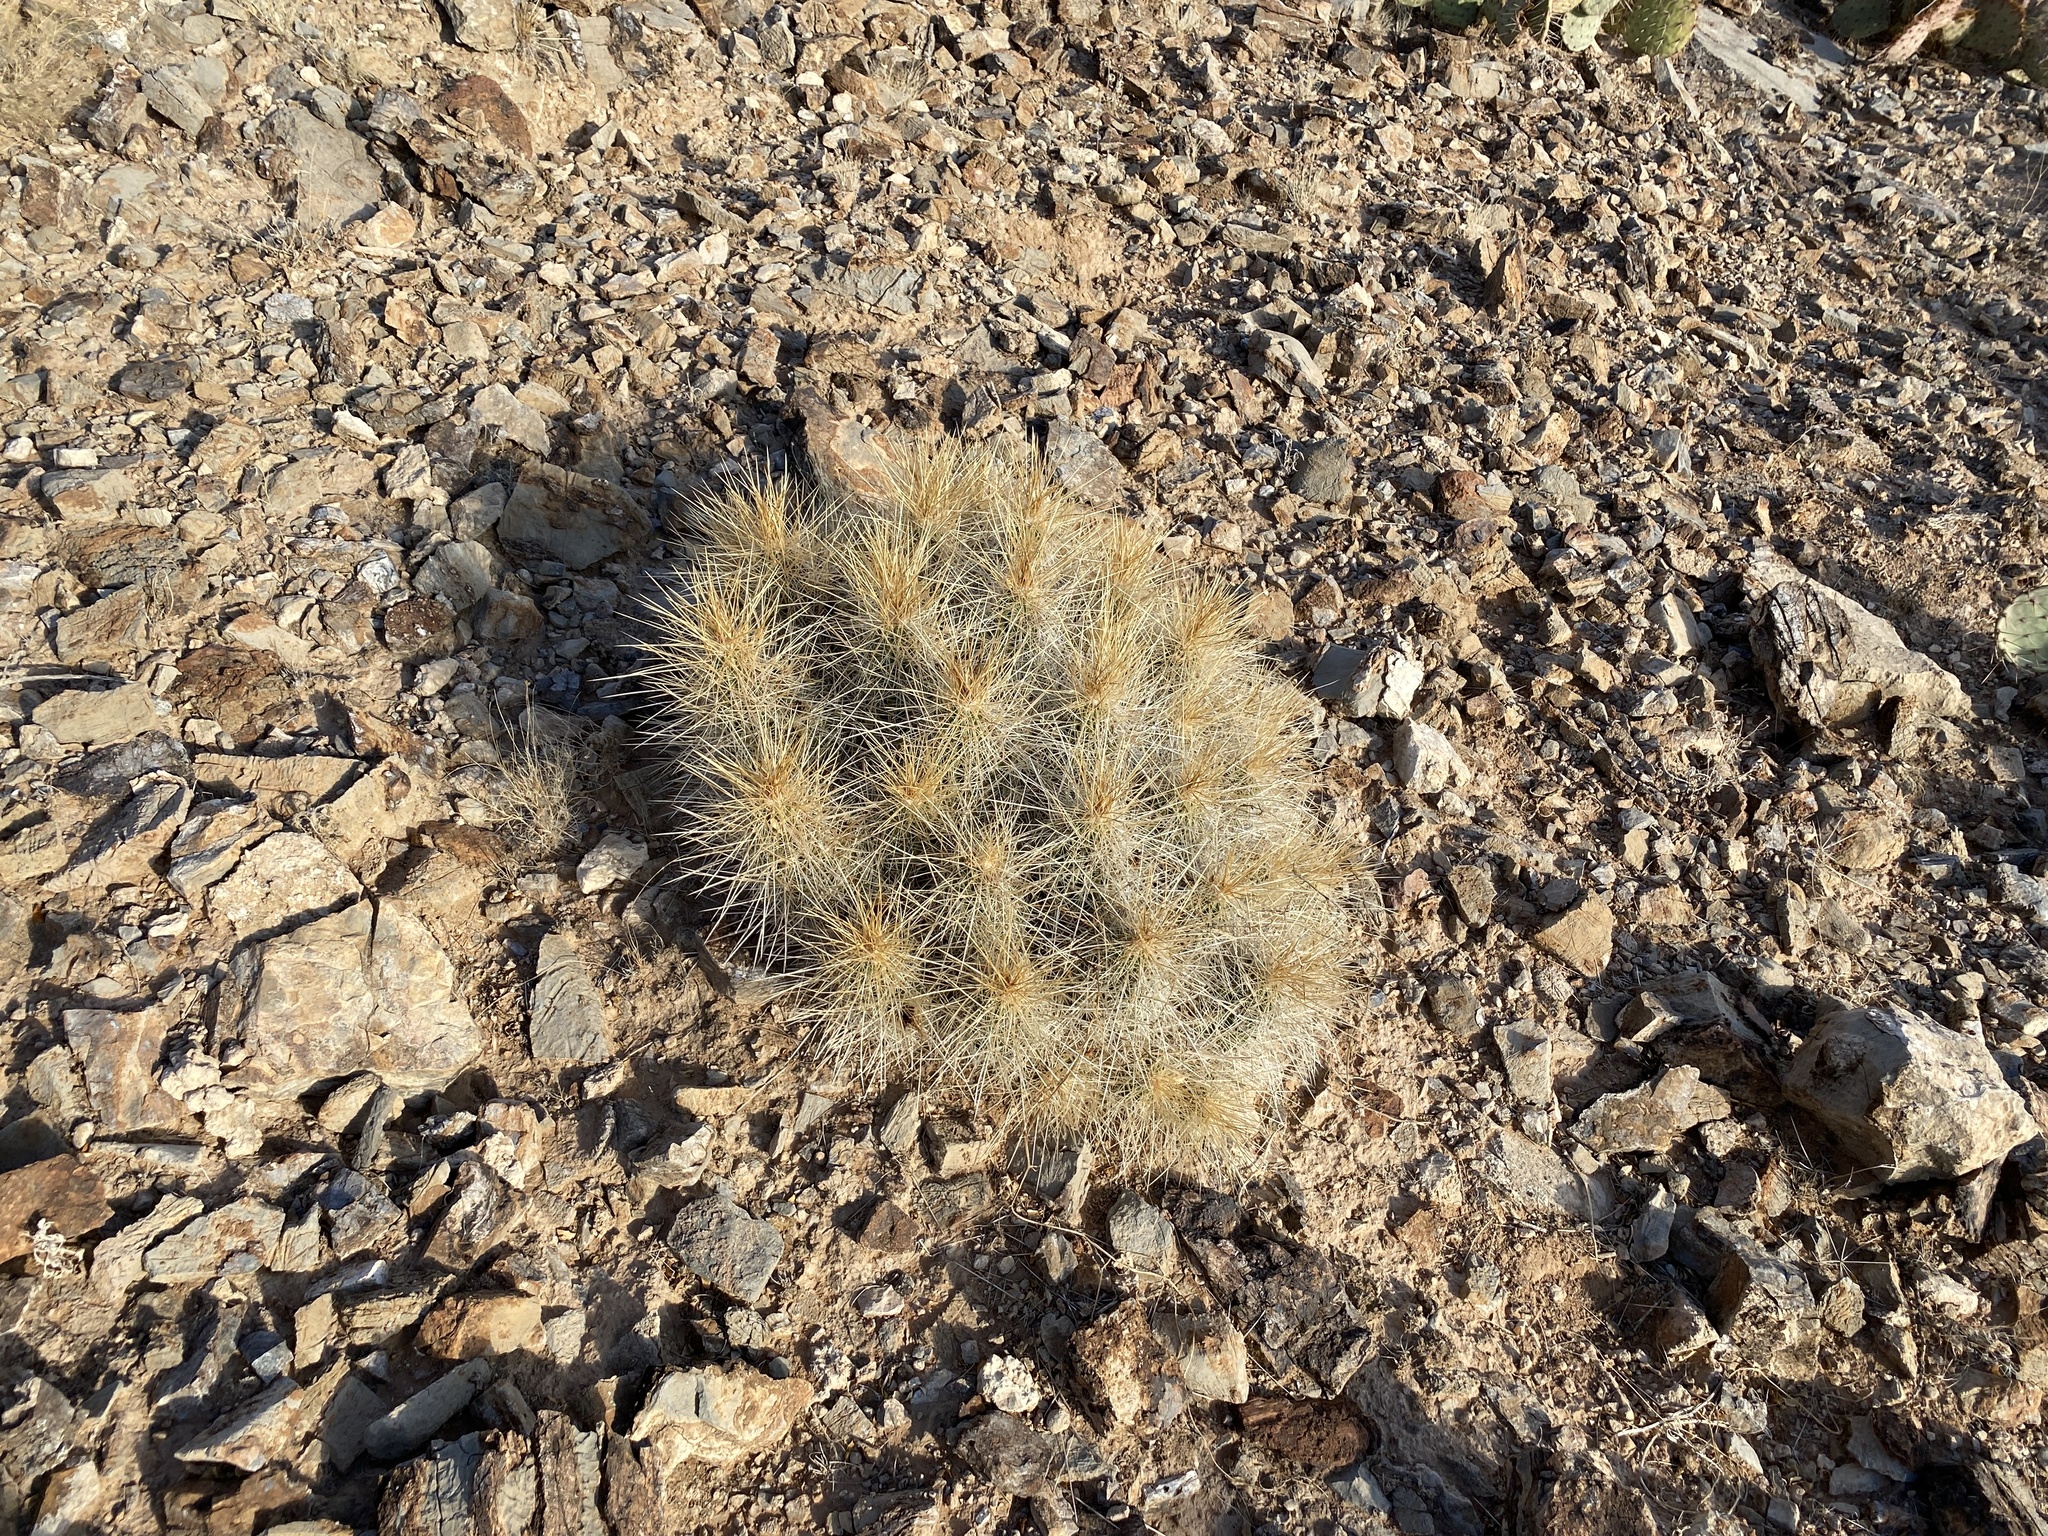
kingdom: Plantae
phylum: Tracheophyta
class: Magnoliopsida
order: Caryophyllales
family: Cactaceae
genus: Echinocereus
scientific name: Echinocereus stramineus
